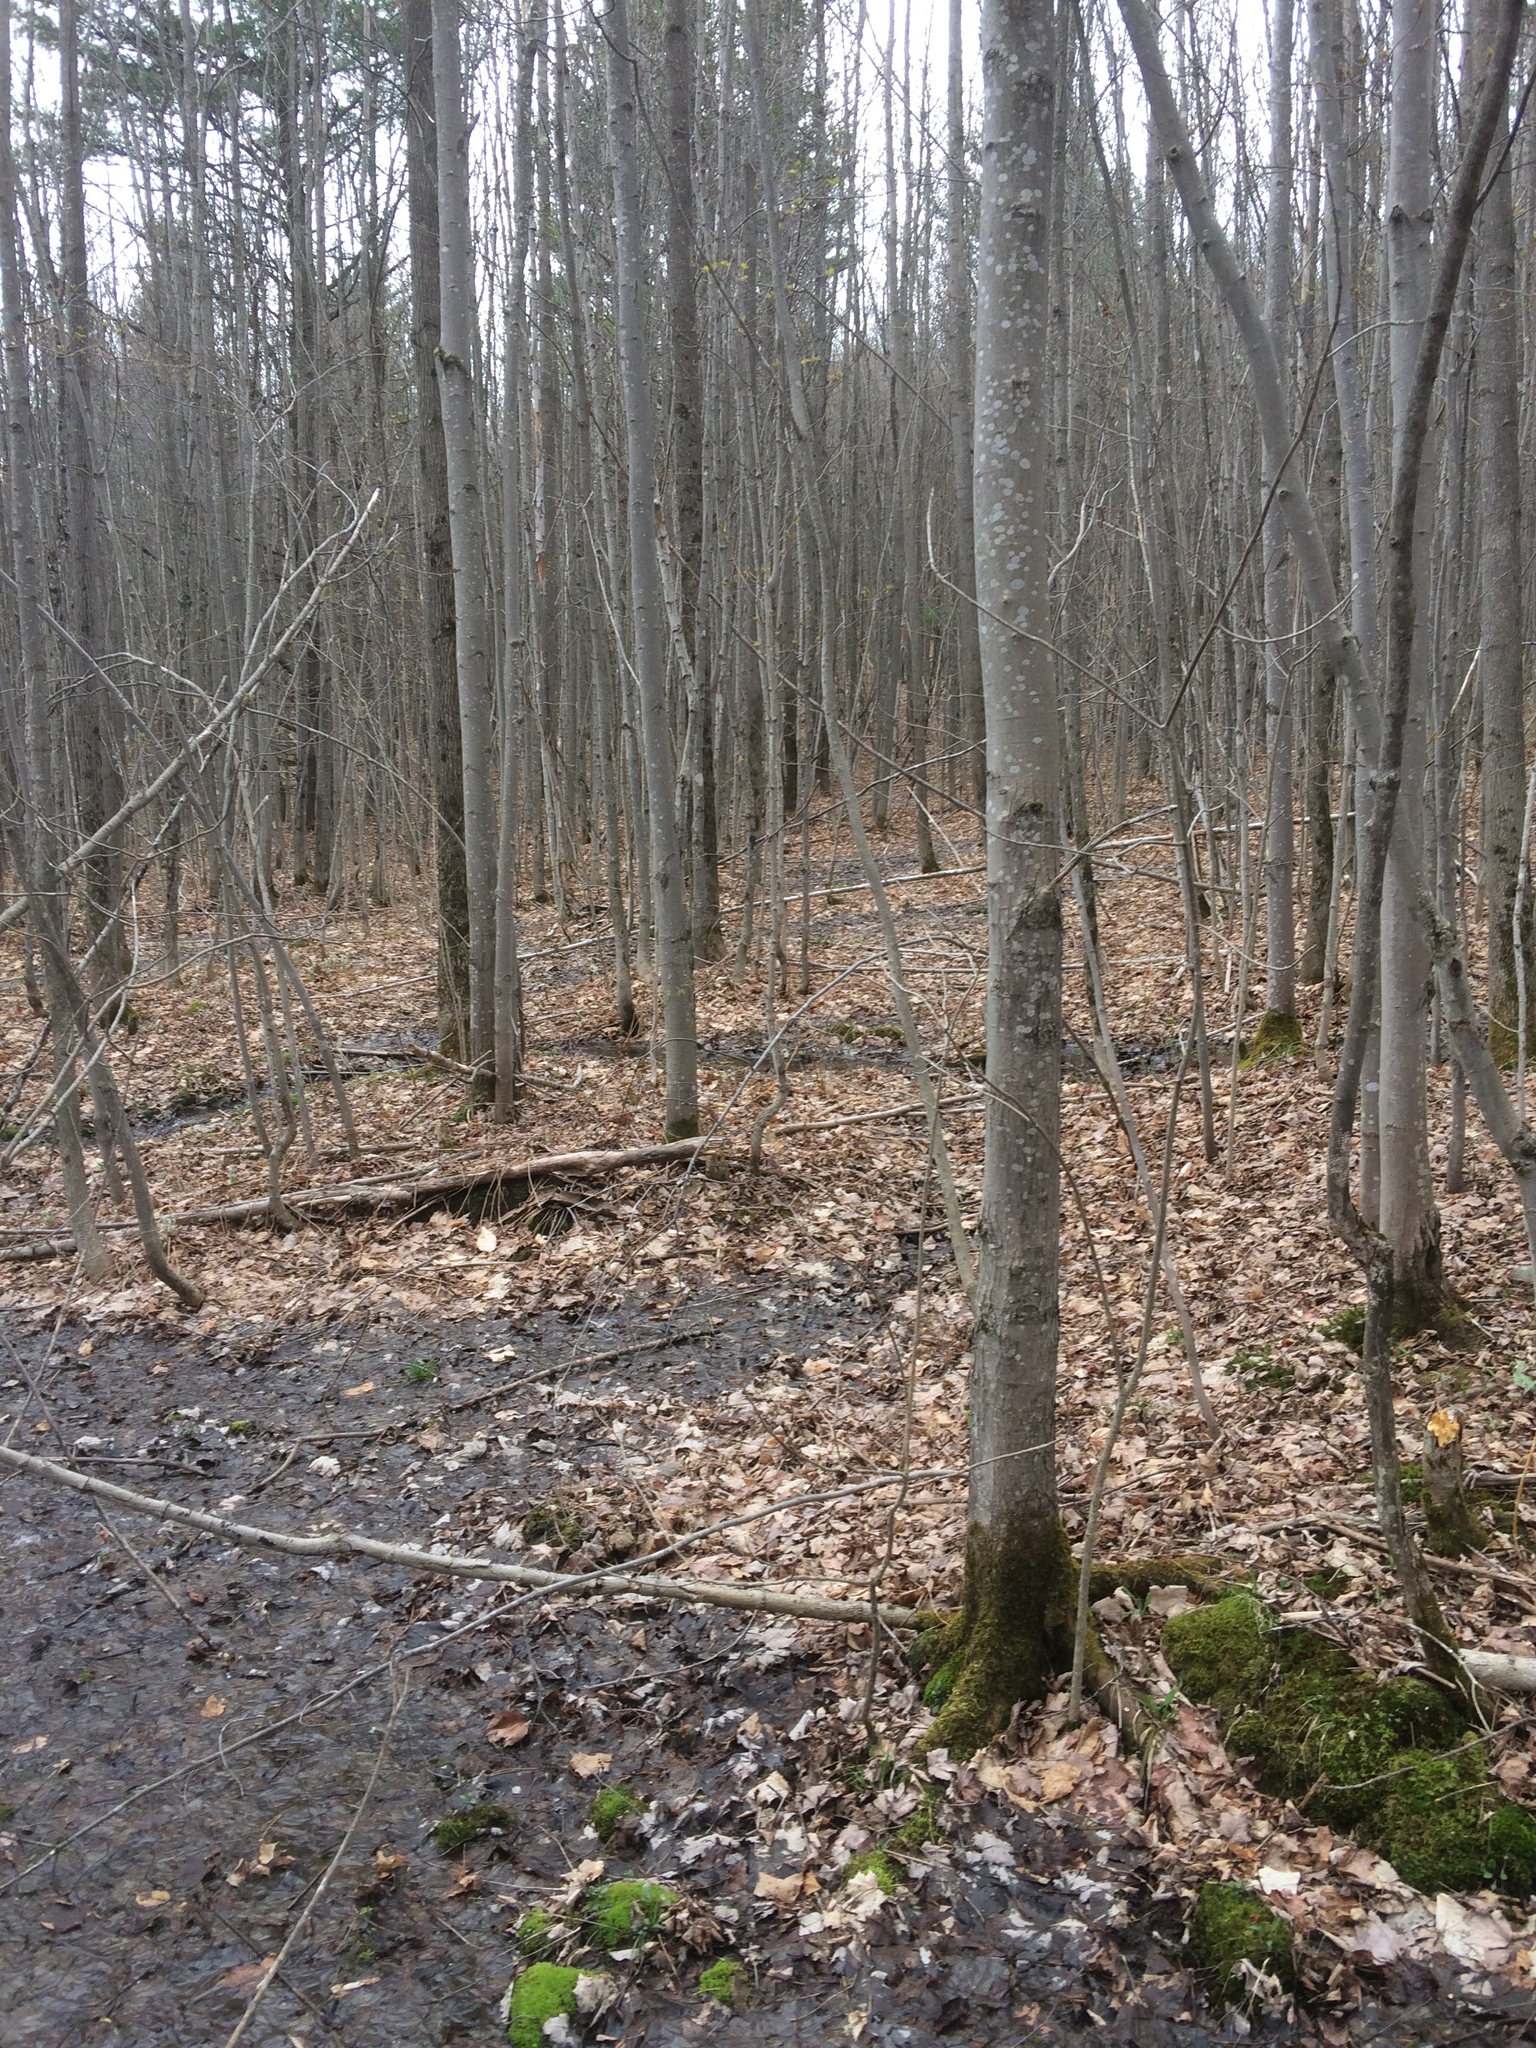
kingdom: Plantae
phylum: Tracheophyta
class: Magnoliopsida
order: Sapindales
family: Sapindaceae
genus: Acer
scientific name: Acer rubrum
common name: Red maple
